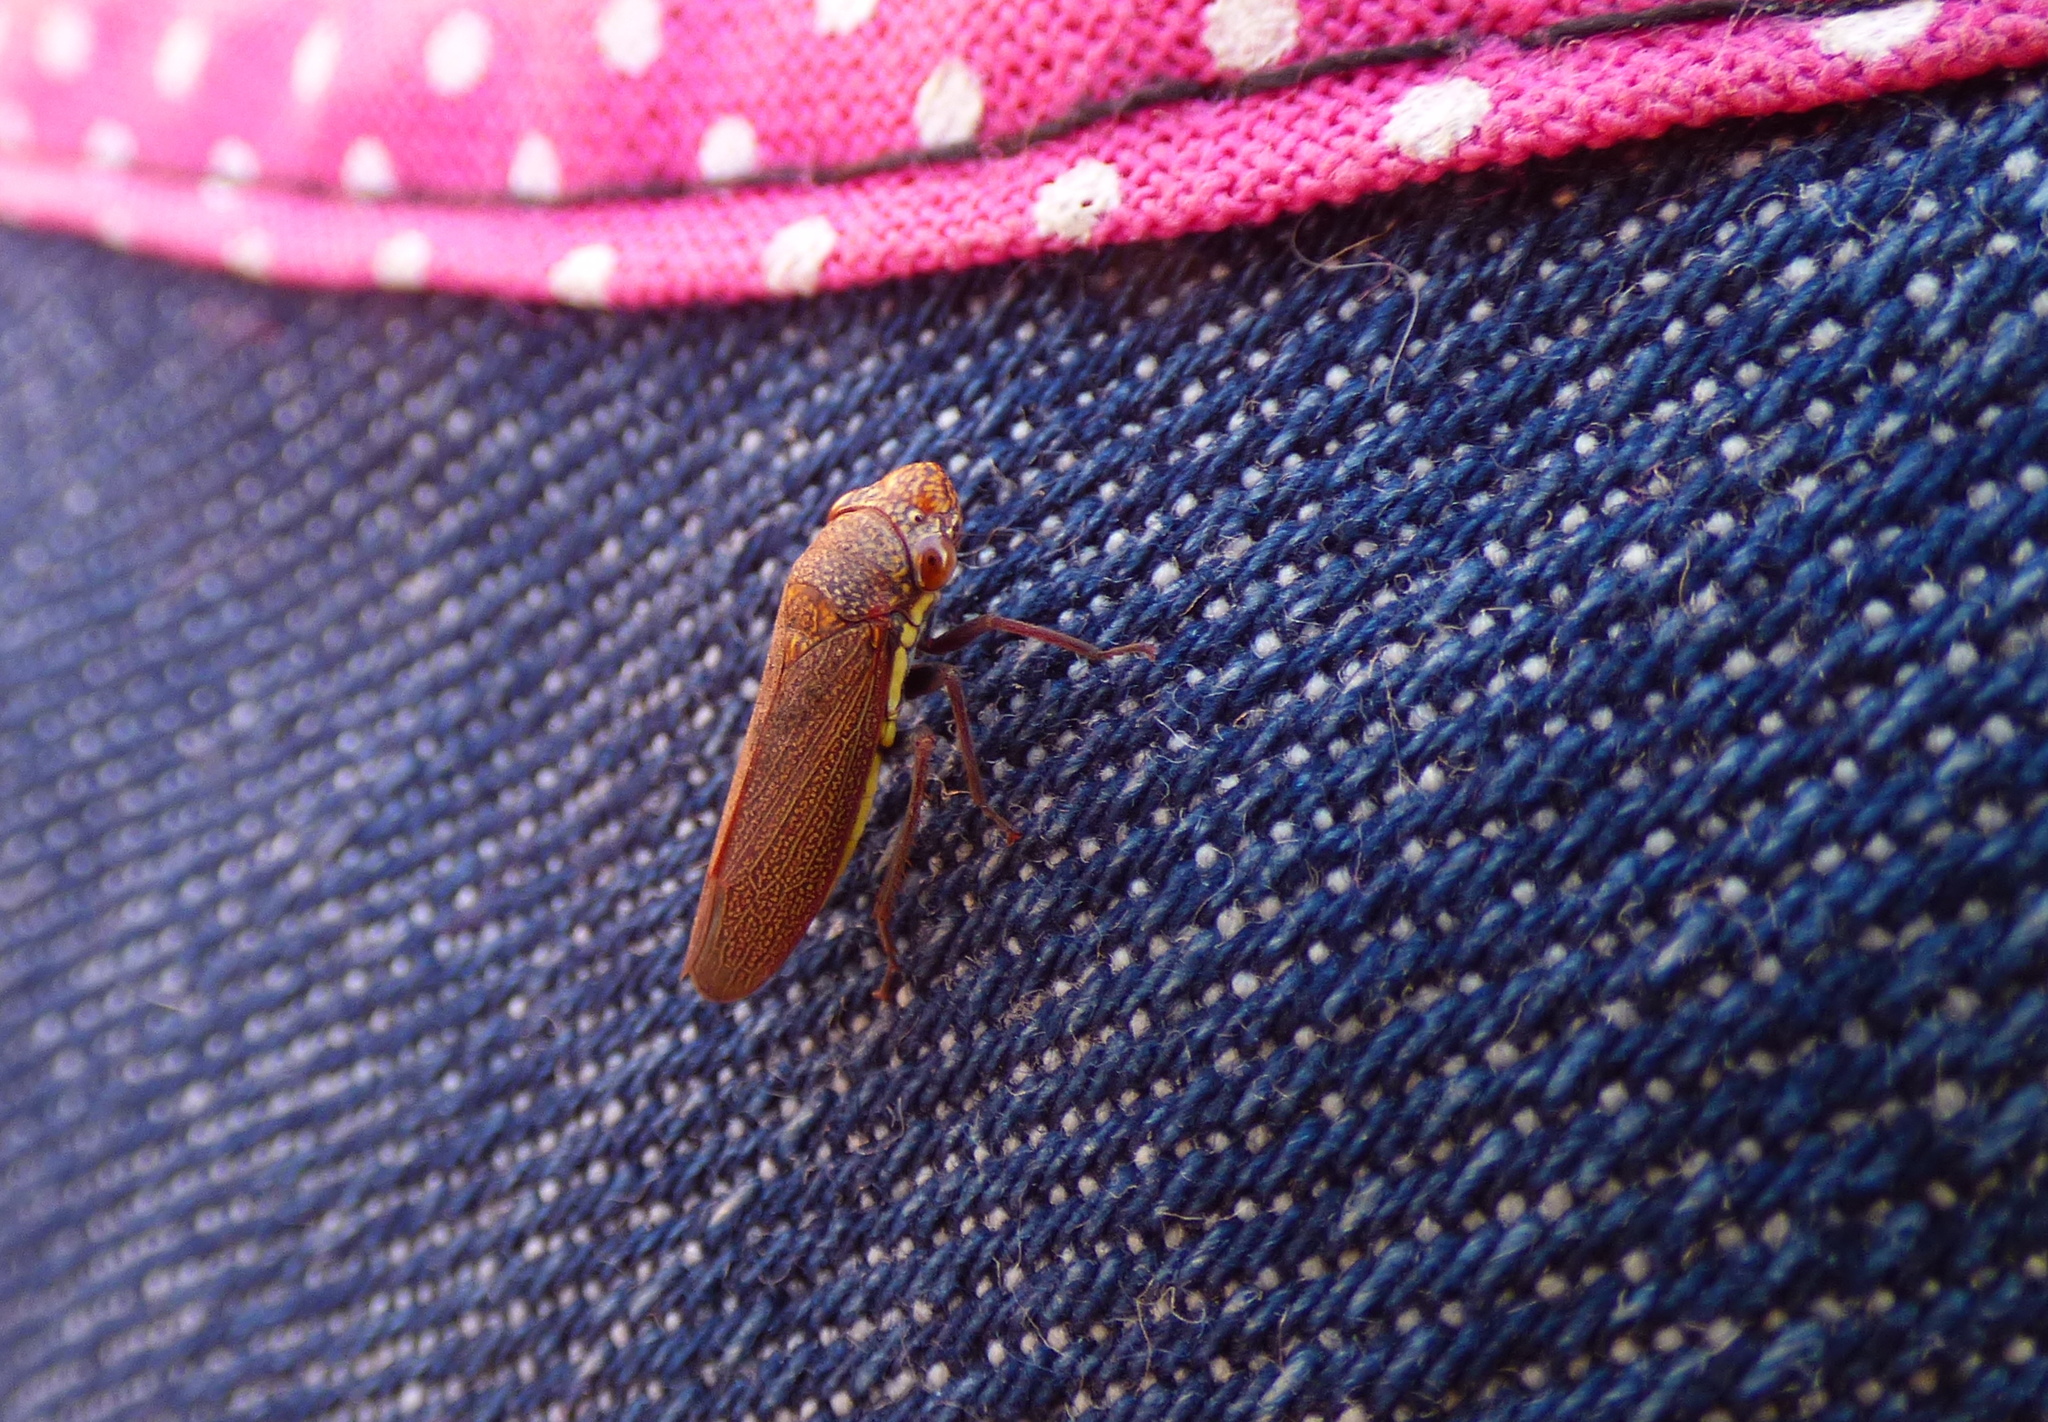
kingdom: Animalia
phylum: Arthropoda
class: Insecta
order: Hemiptera
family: Cicadellidae
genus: Tapajosa
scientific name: Tapajosa rubromarginata
